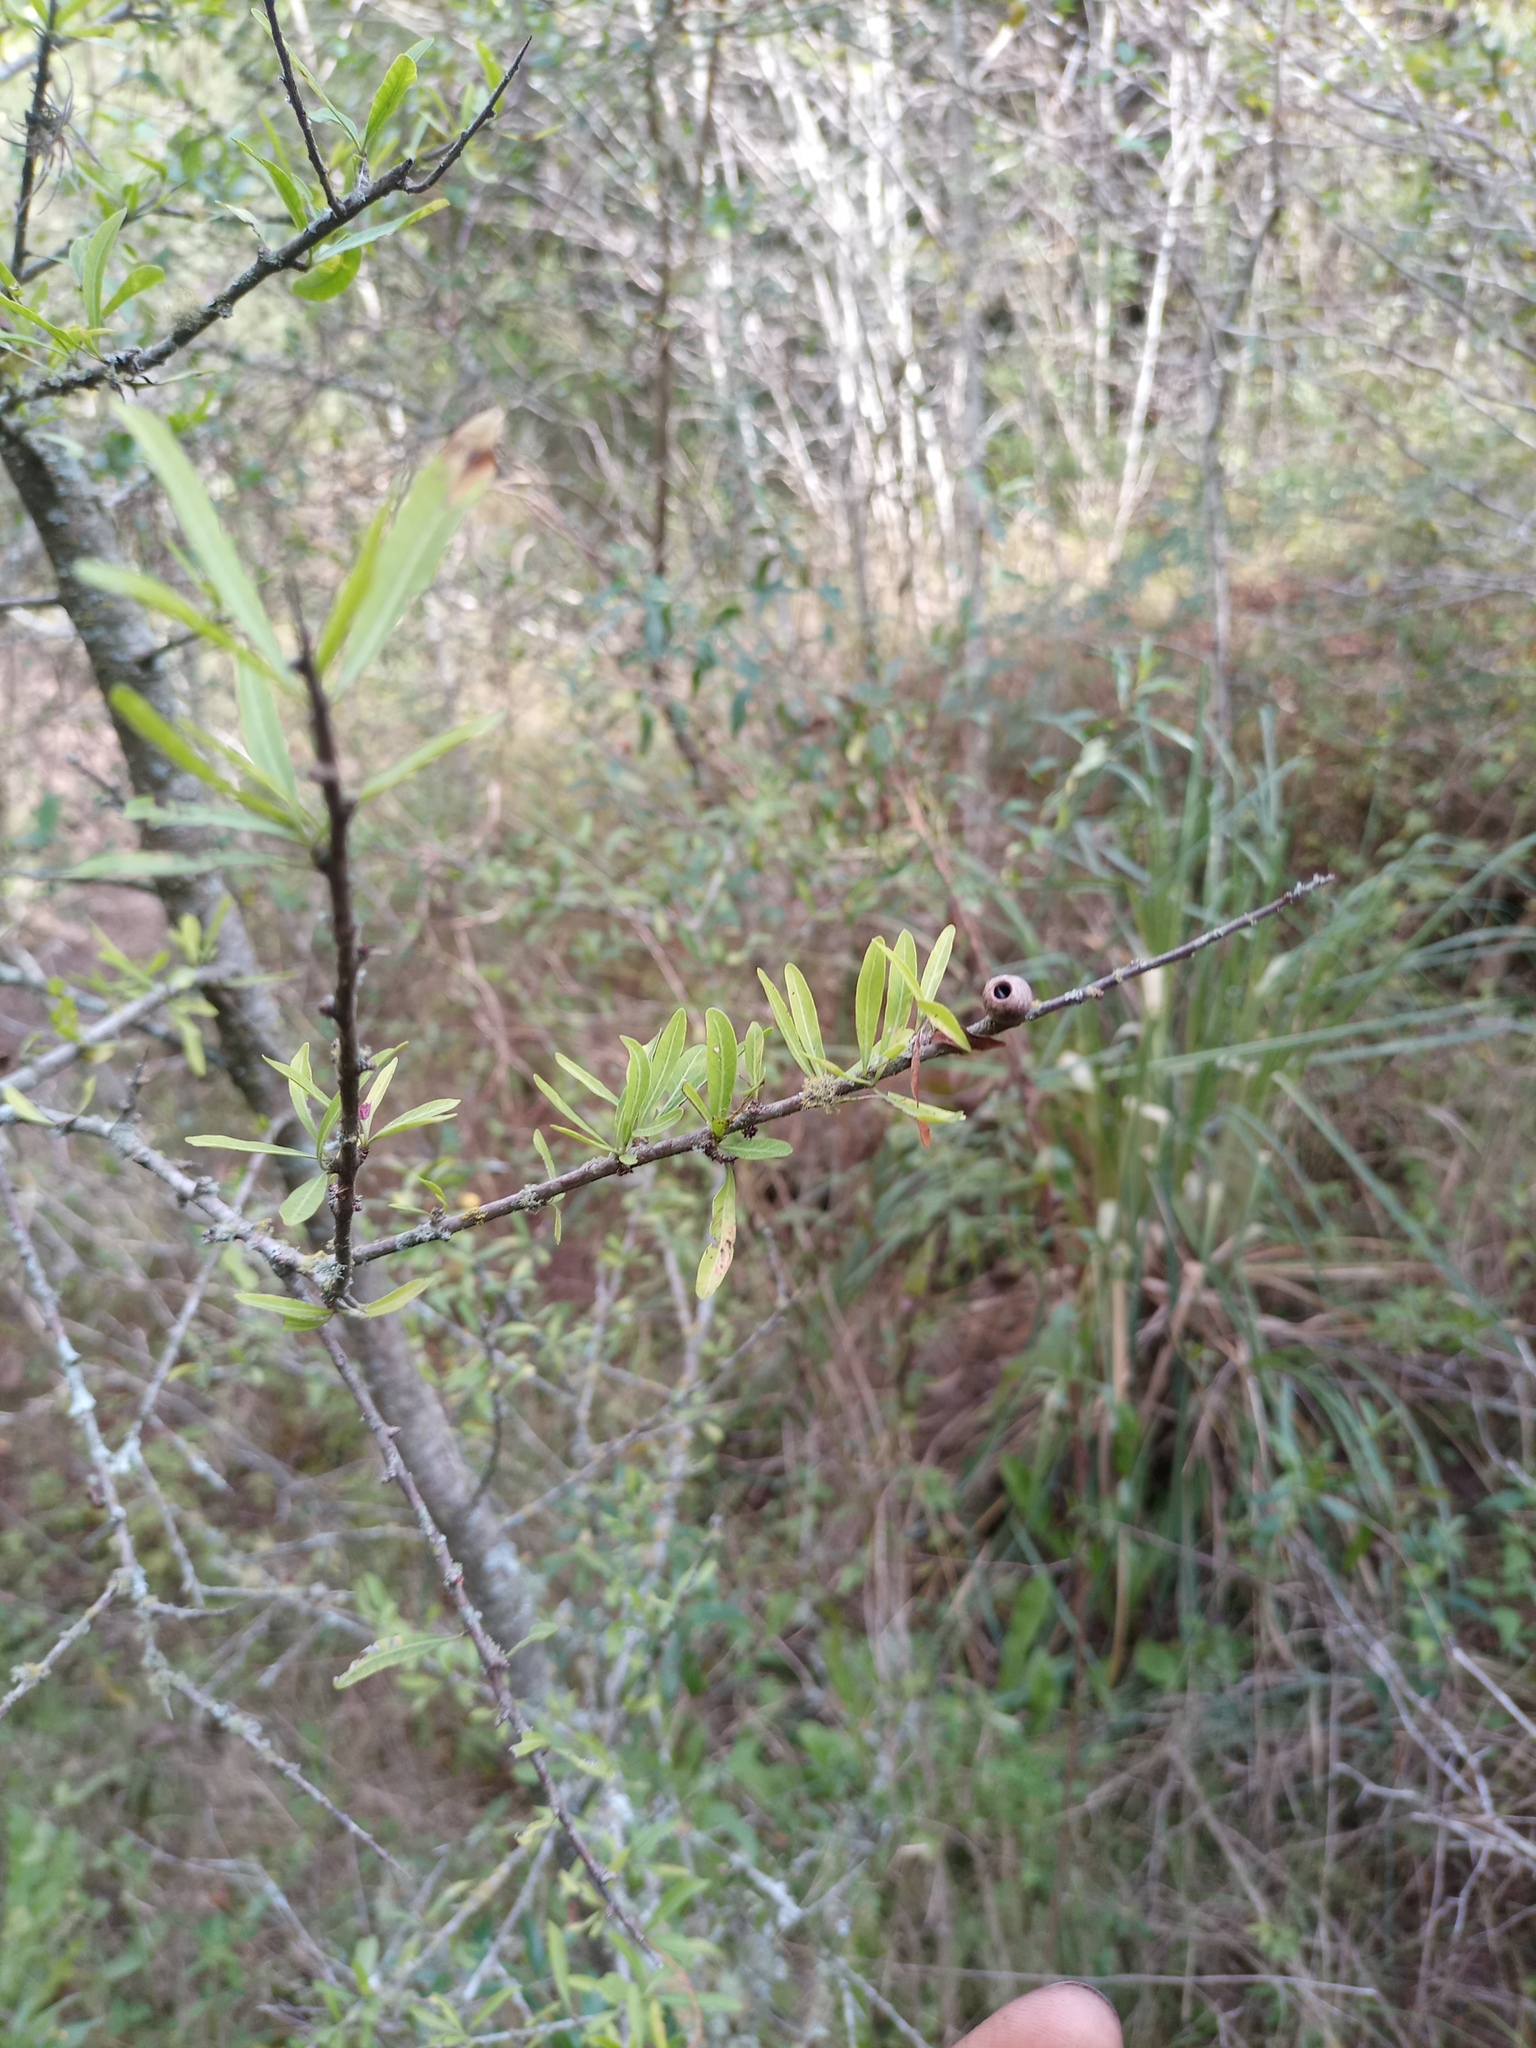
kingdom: Plantae
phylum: Tracheophyta
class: Magnoliopsida
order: Sapindales
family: Anacardiaceae
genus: Schinus
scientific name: Schinus longifolia
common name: Longleaf peppertree
